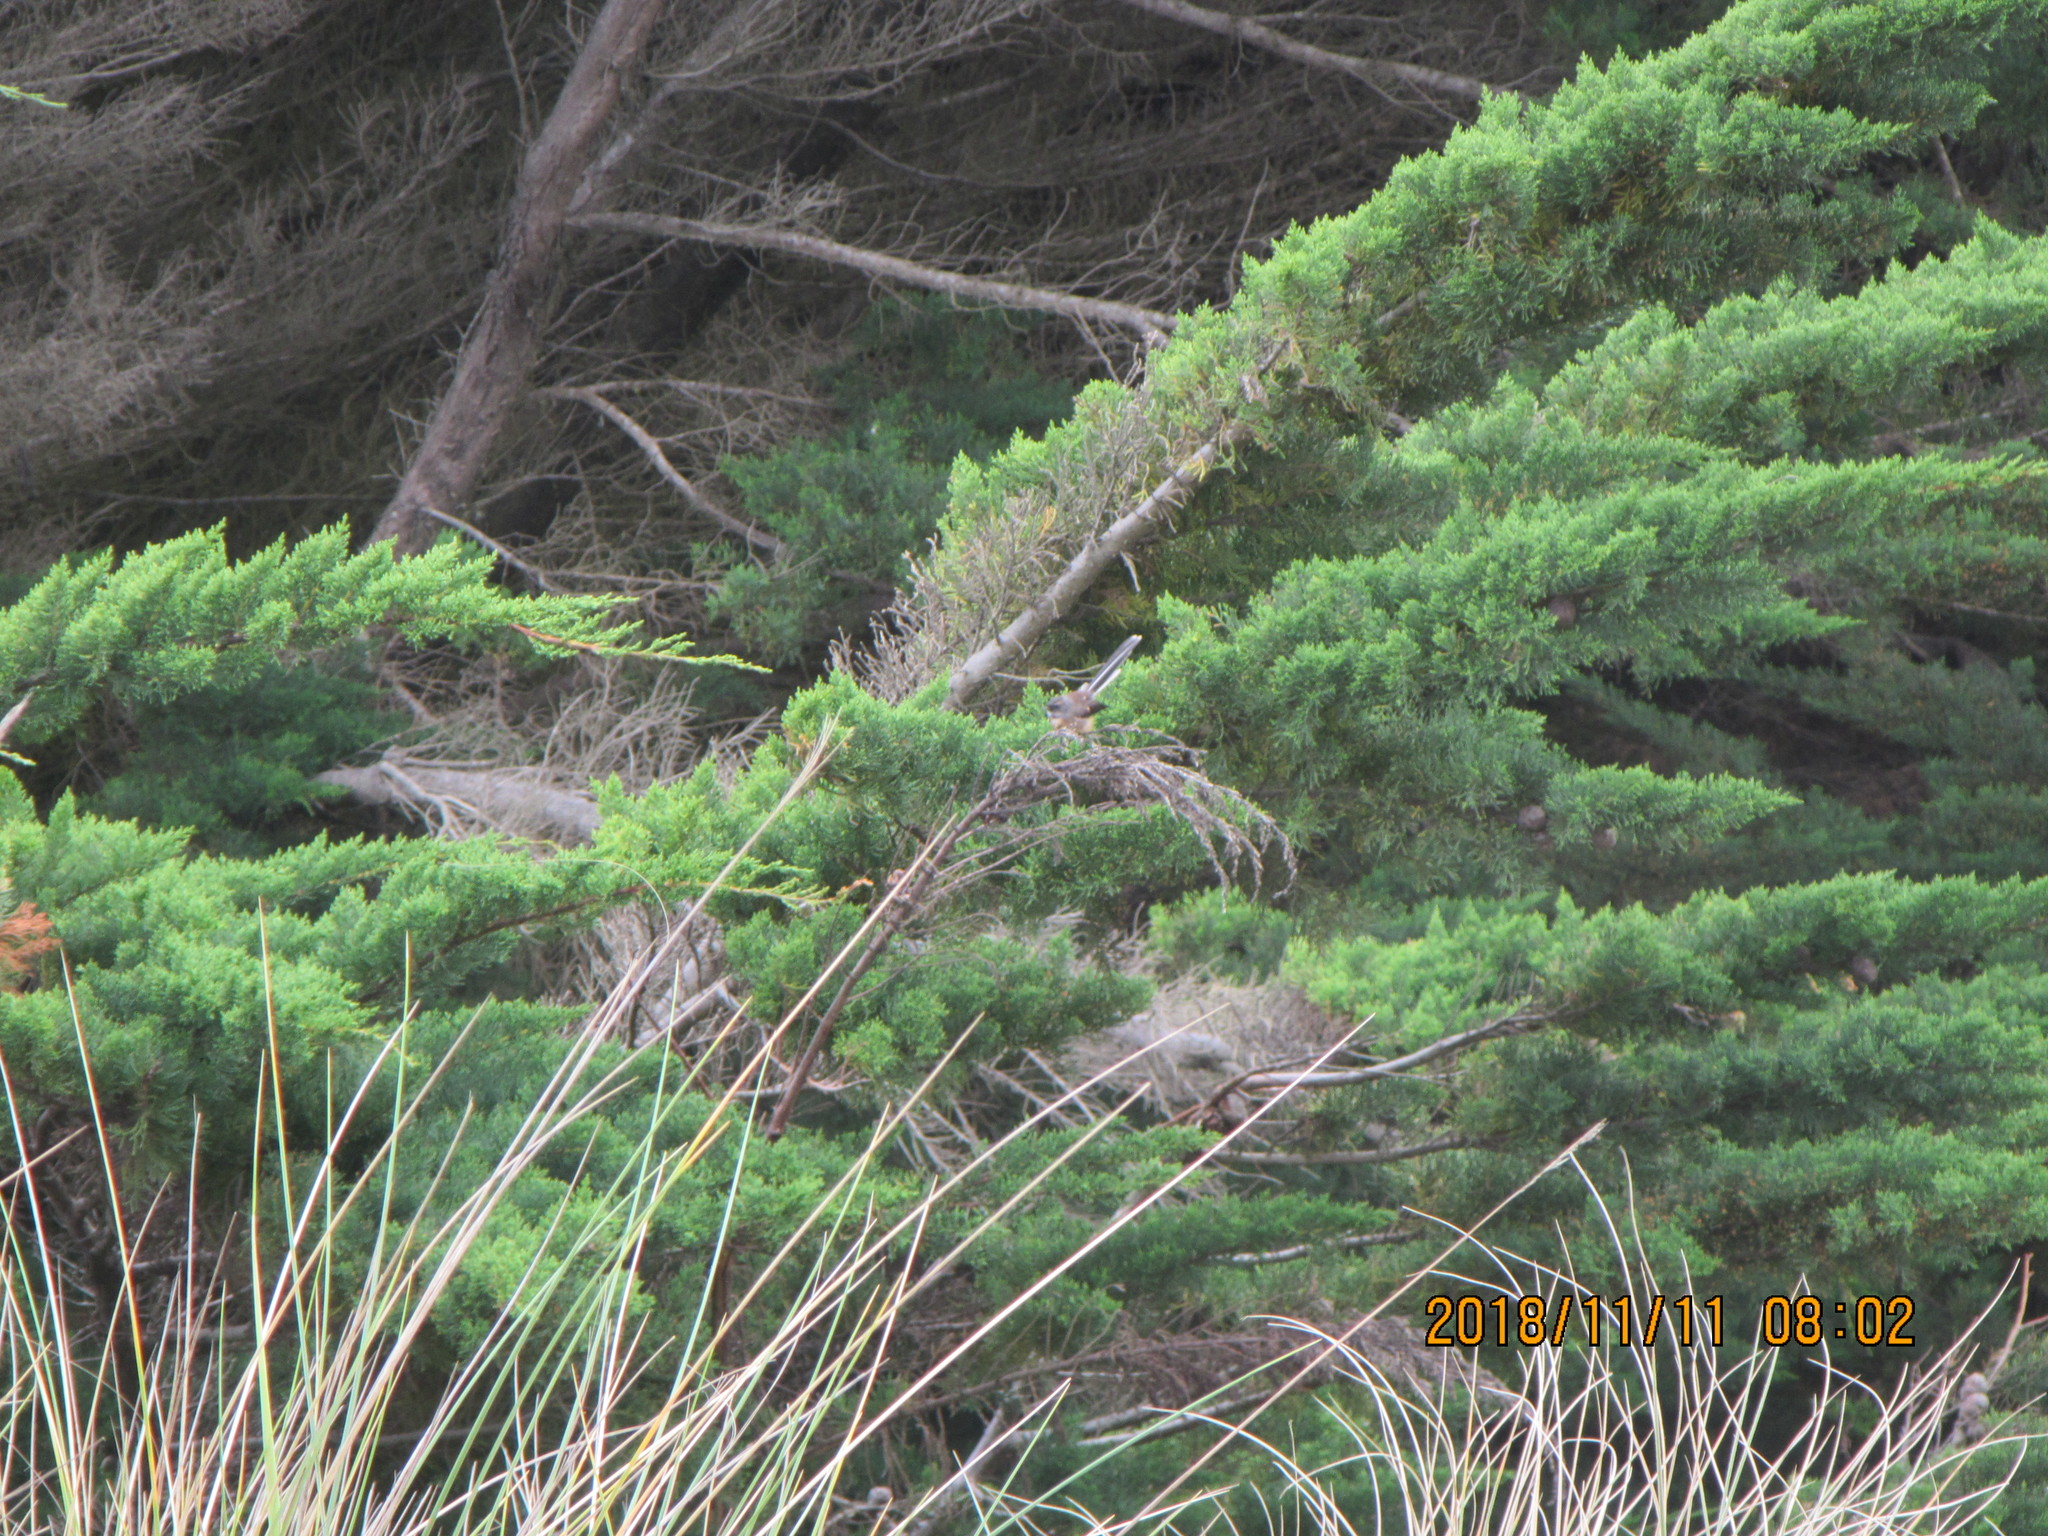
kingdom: Animalia
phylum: Chordata
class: Aves
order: Passeriformes
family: Rhipiduridae
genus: Rhipidura
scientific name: Rhipidura fuliginosa
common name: New zealand fantail
